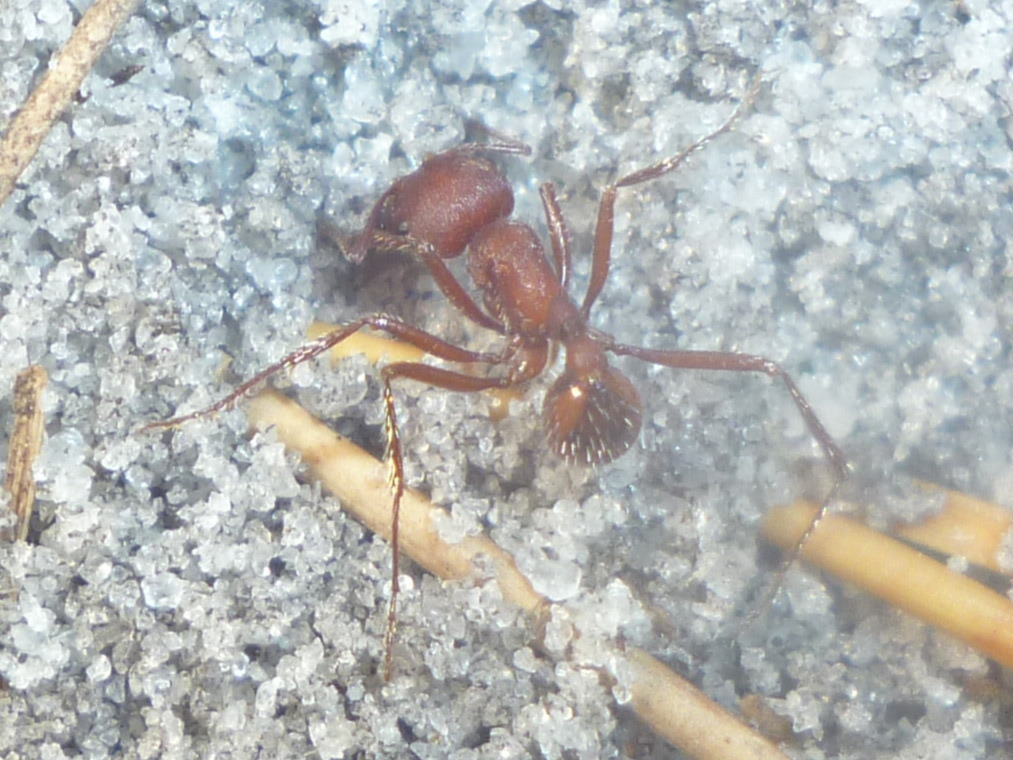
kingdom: Animalia
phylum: Arthropoda
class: Insecta
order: Hymenoptera
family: Formicidae
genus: Pogonomyrmex
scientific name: Pogonomyrmex badius
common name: Florida harvester ant
